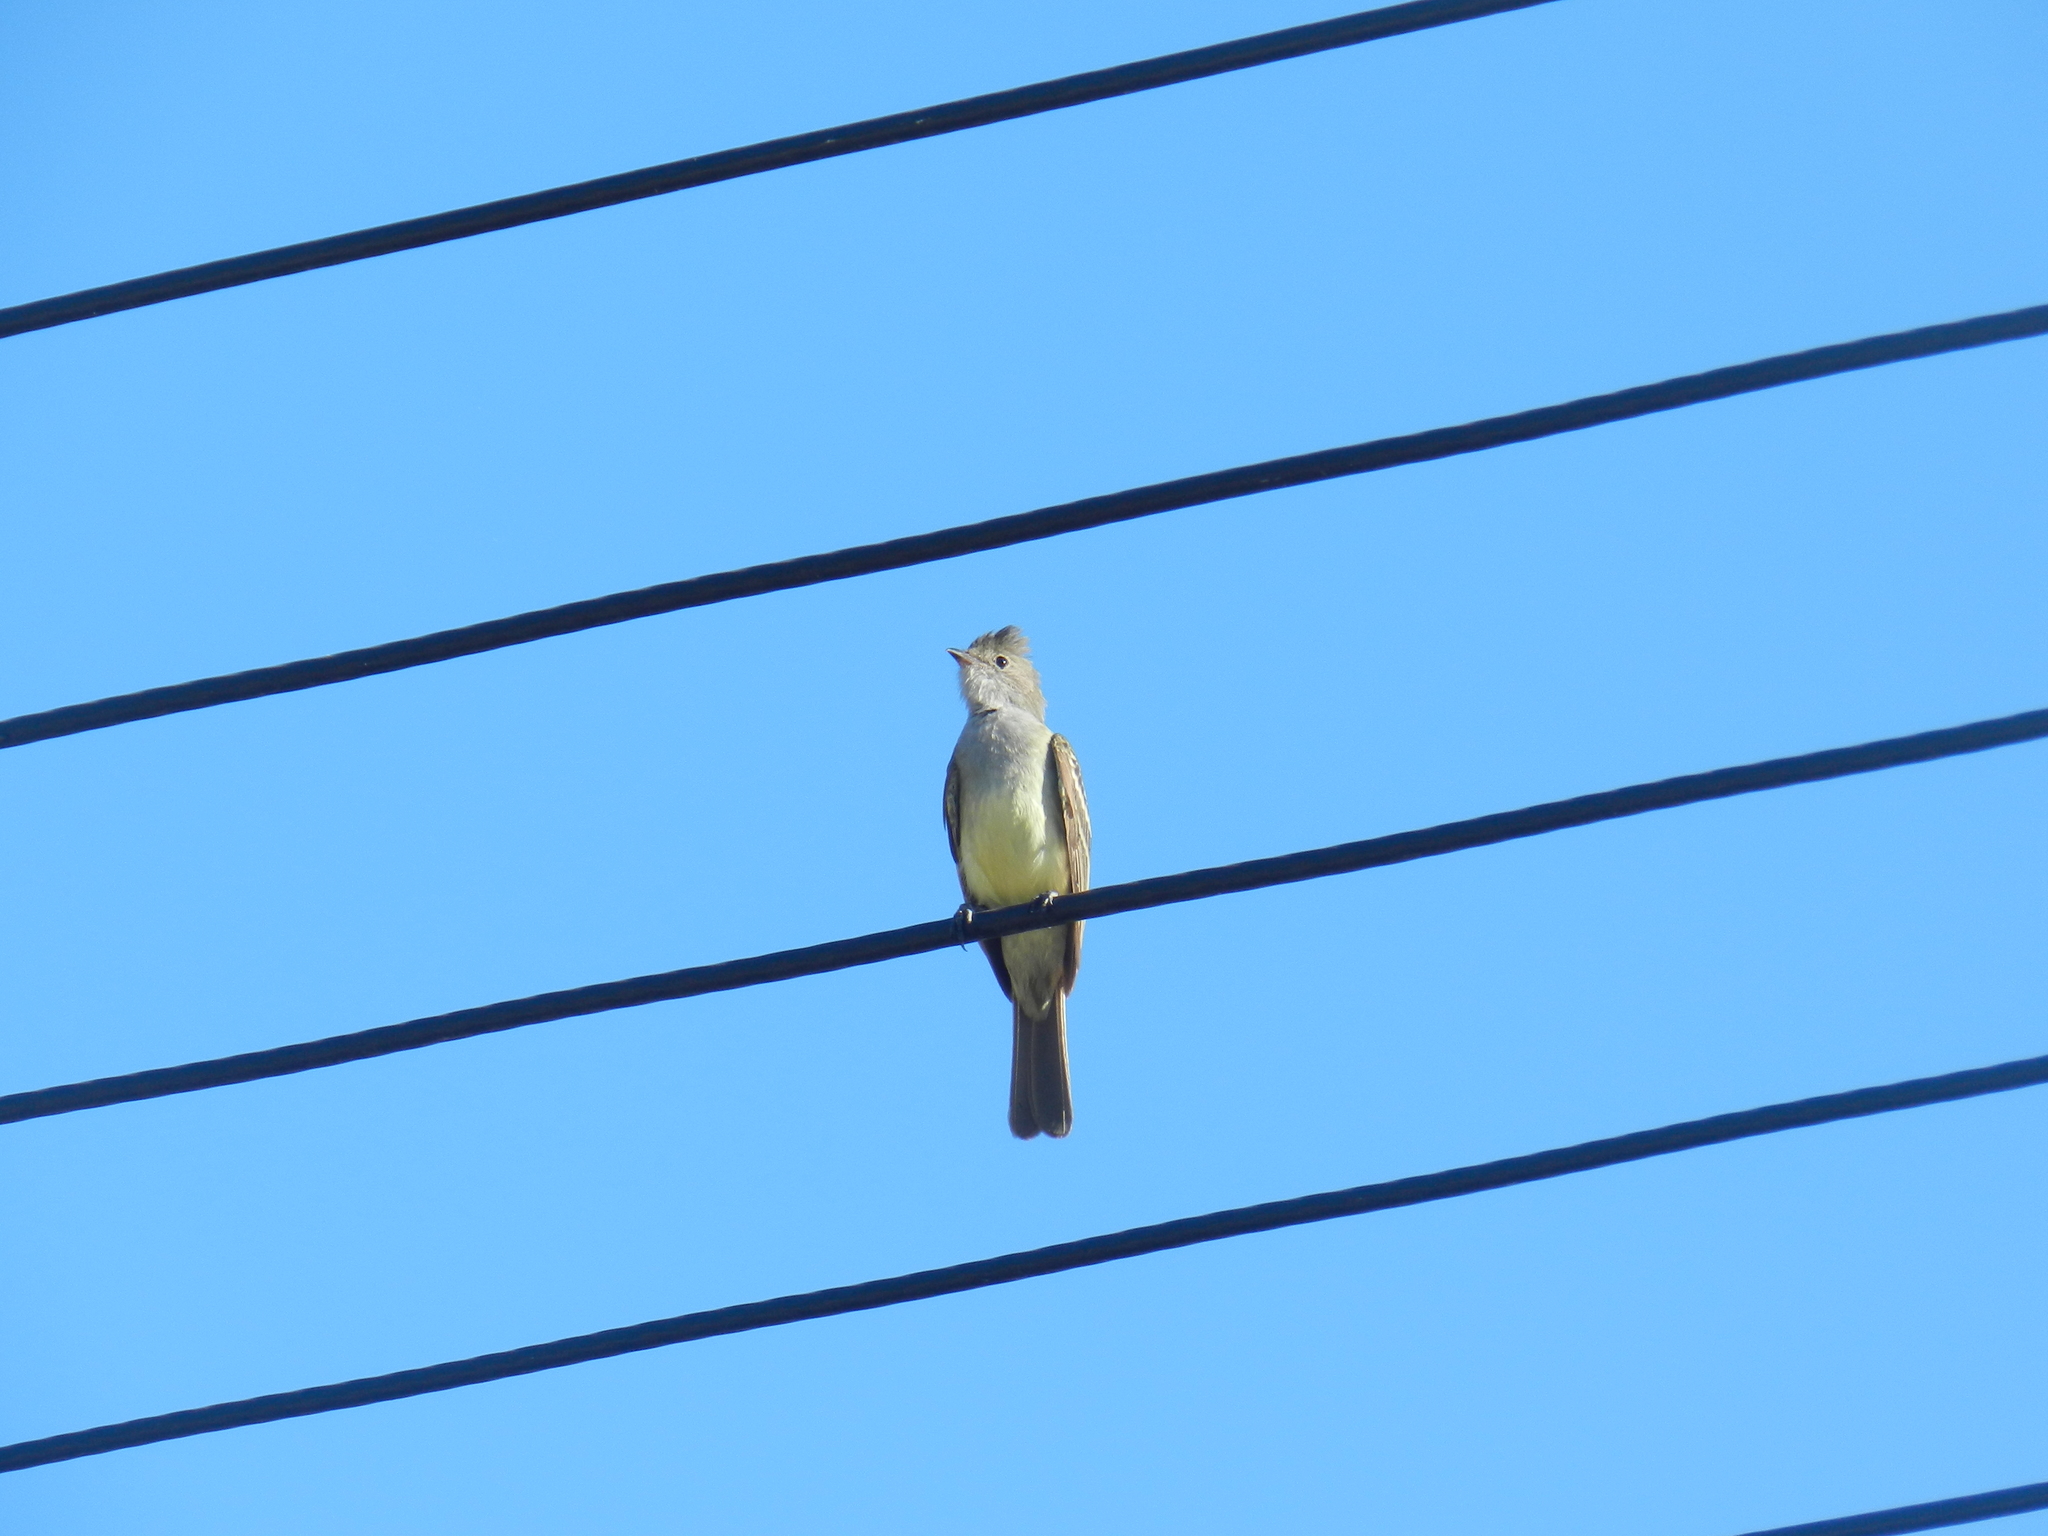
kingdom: Animalia
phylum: Chordata
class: Aves
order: Passeriformes
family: Tyrannidae
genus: Elaenia
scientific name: Elaenia spectabilis
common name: Large elaenia
